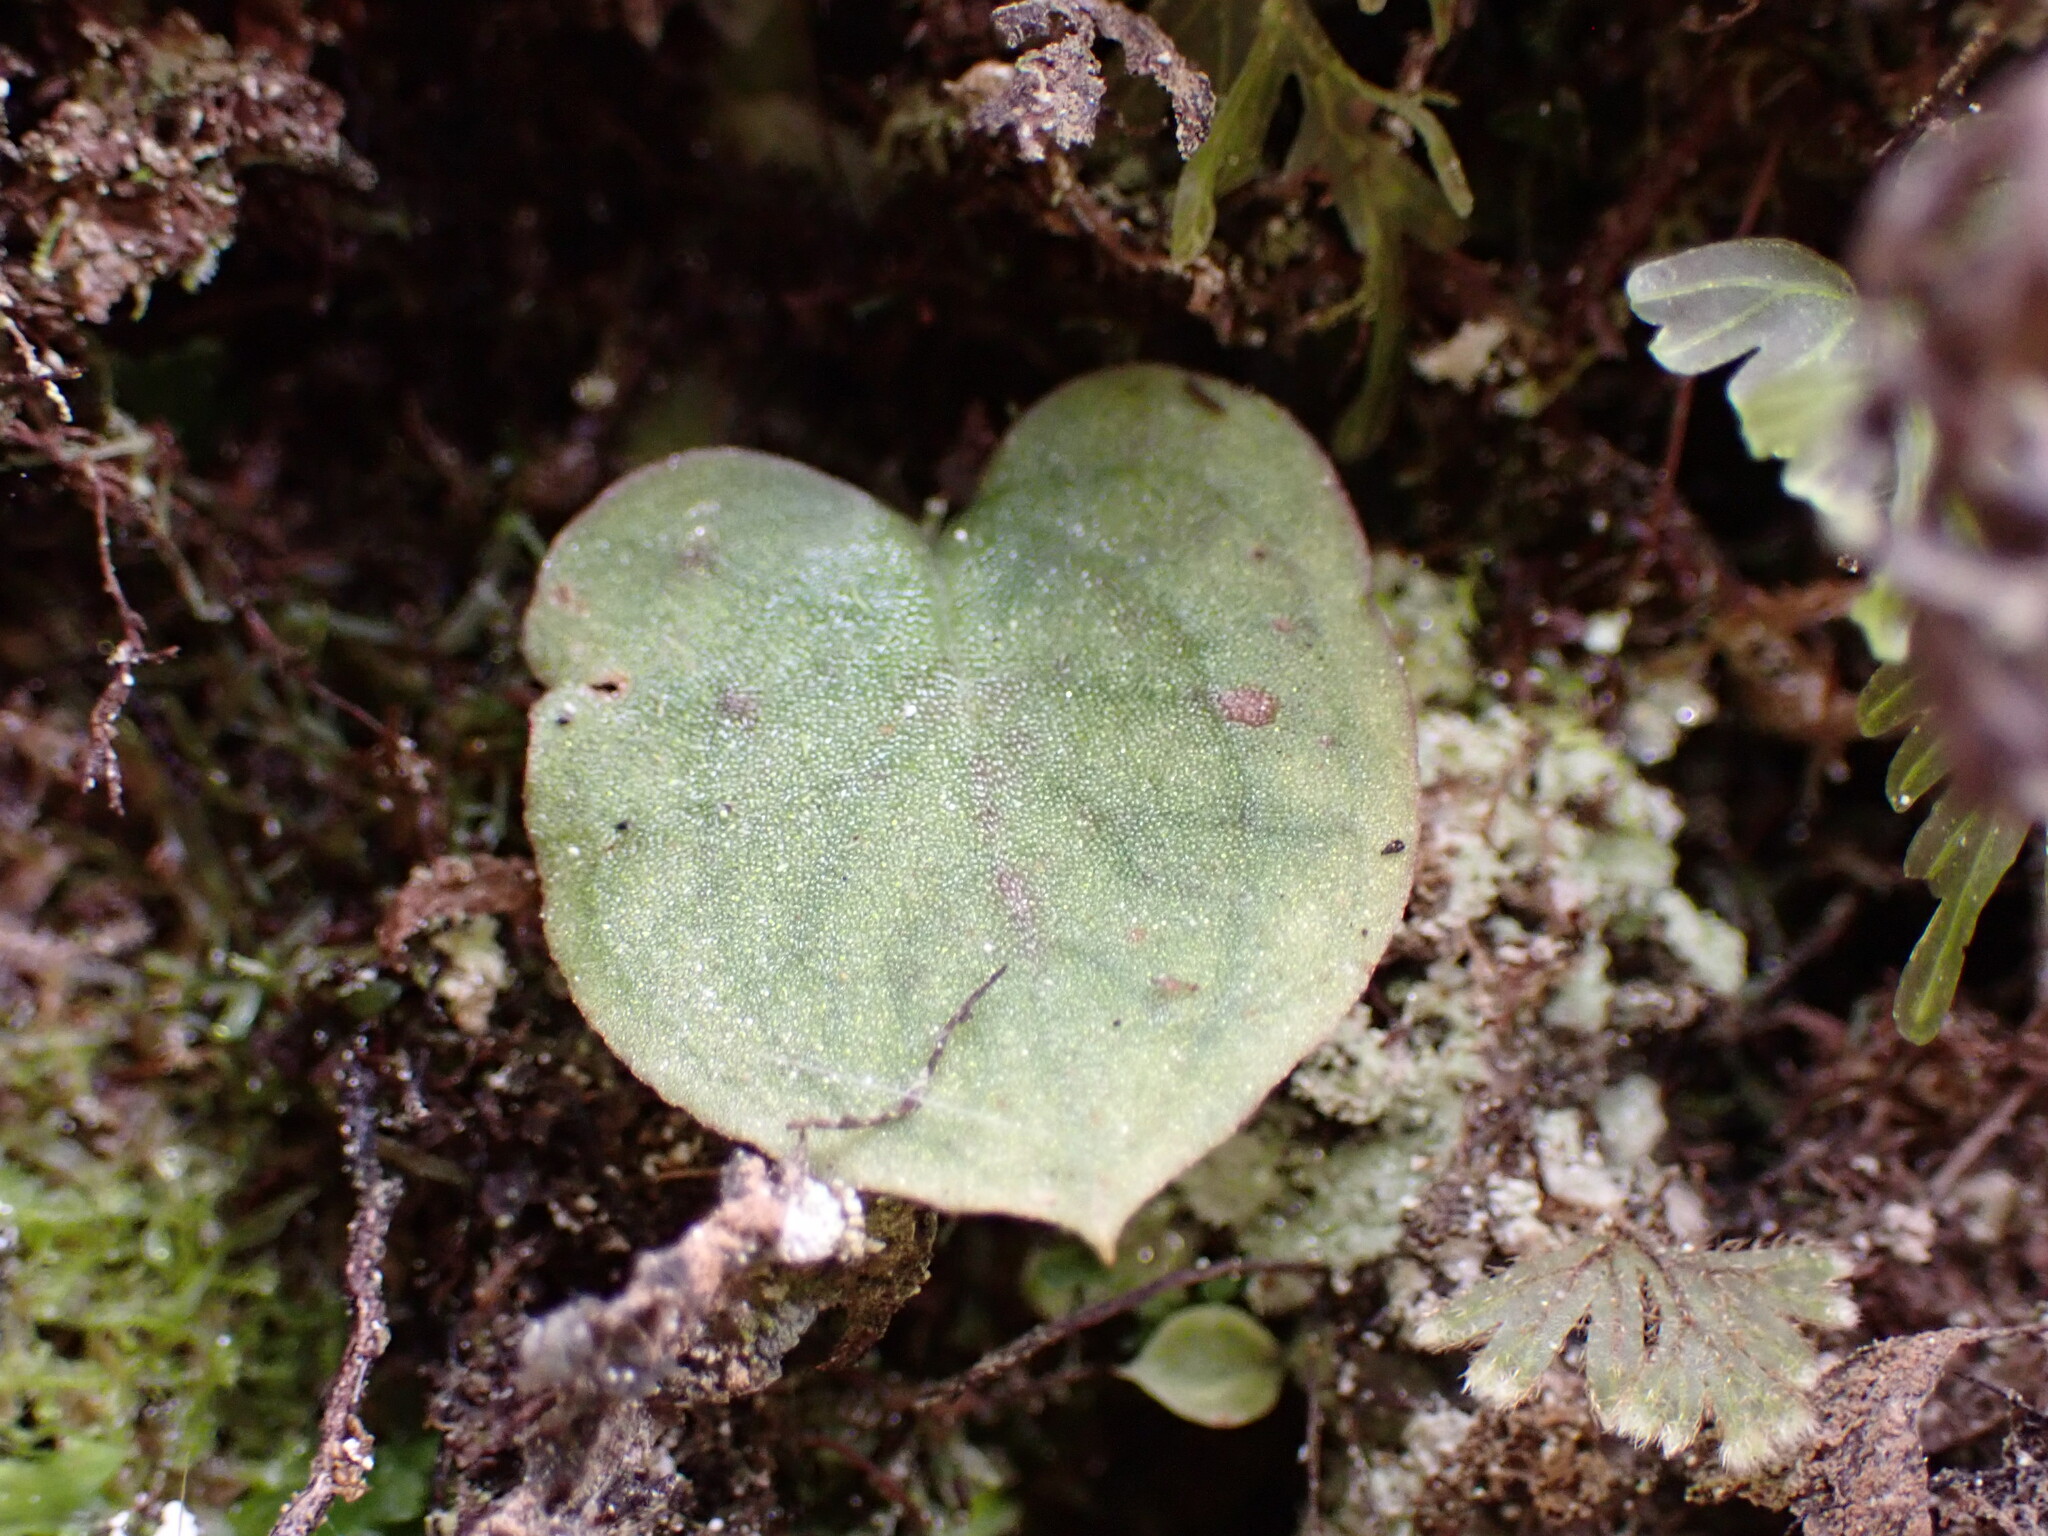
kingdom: Plantae
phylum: Tracheophyta
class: Liliopsida
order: Asparagales
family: Orchidaceae
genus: Corybas
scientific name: Corybas oblongus
